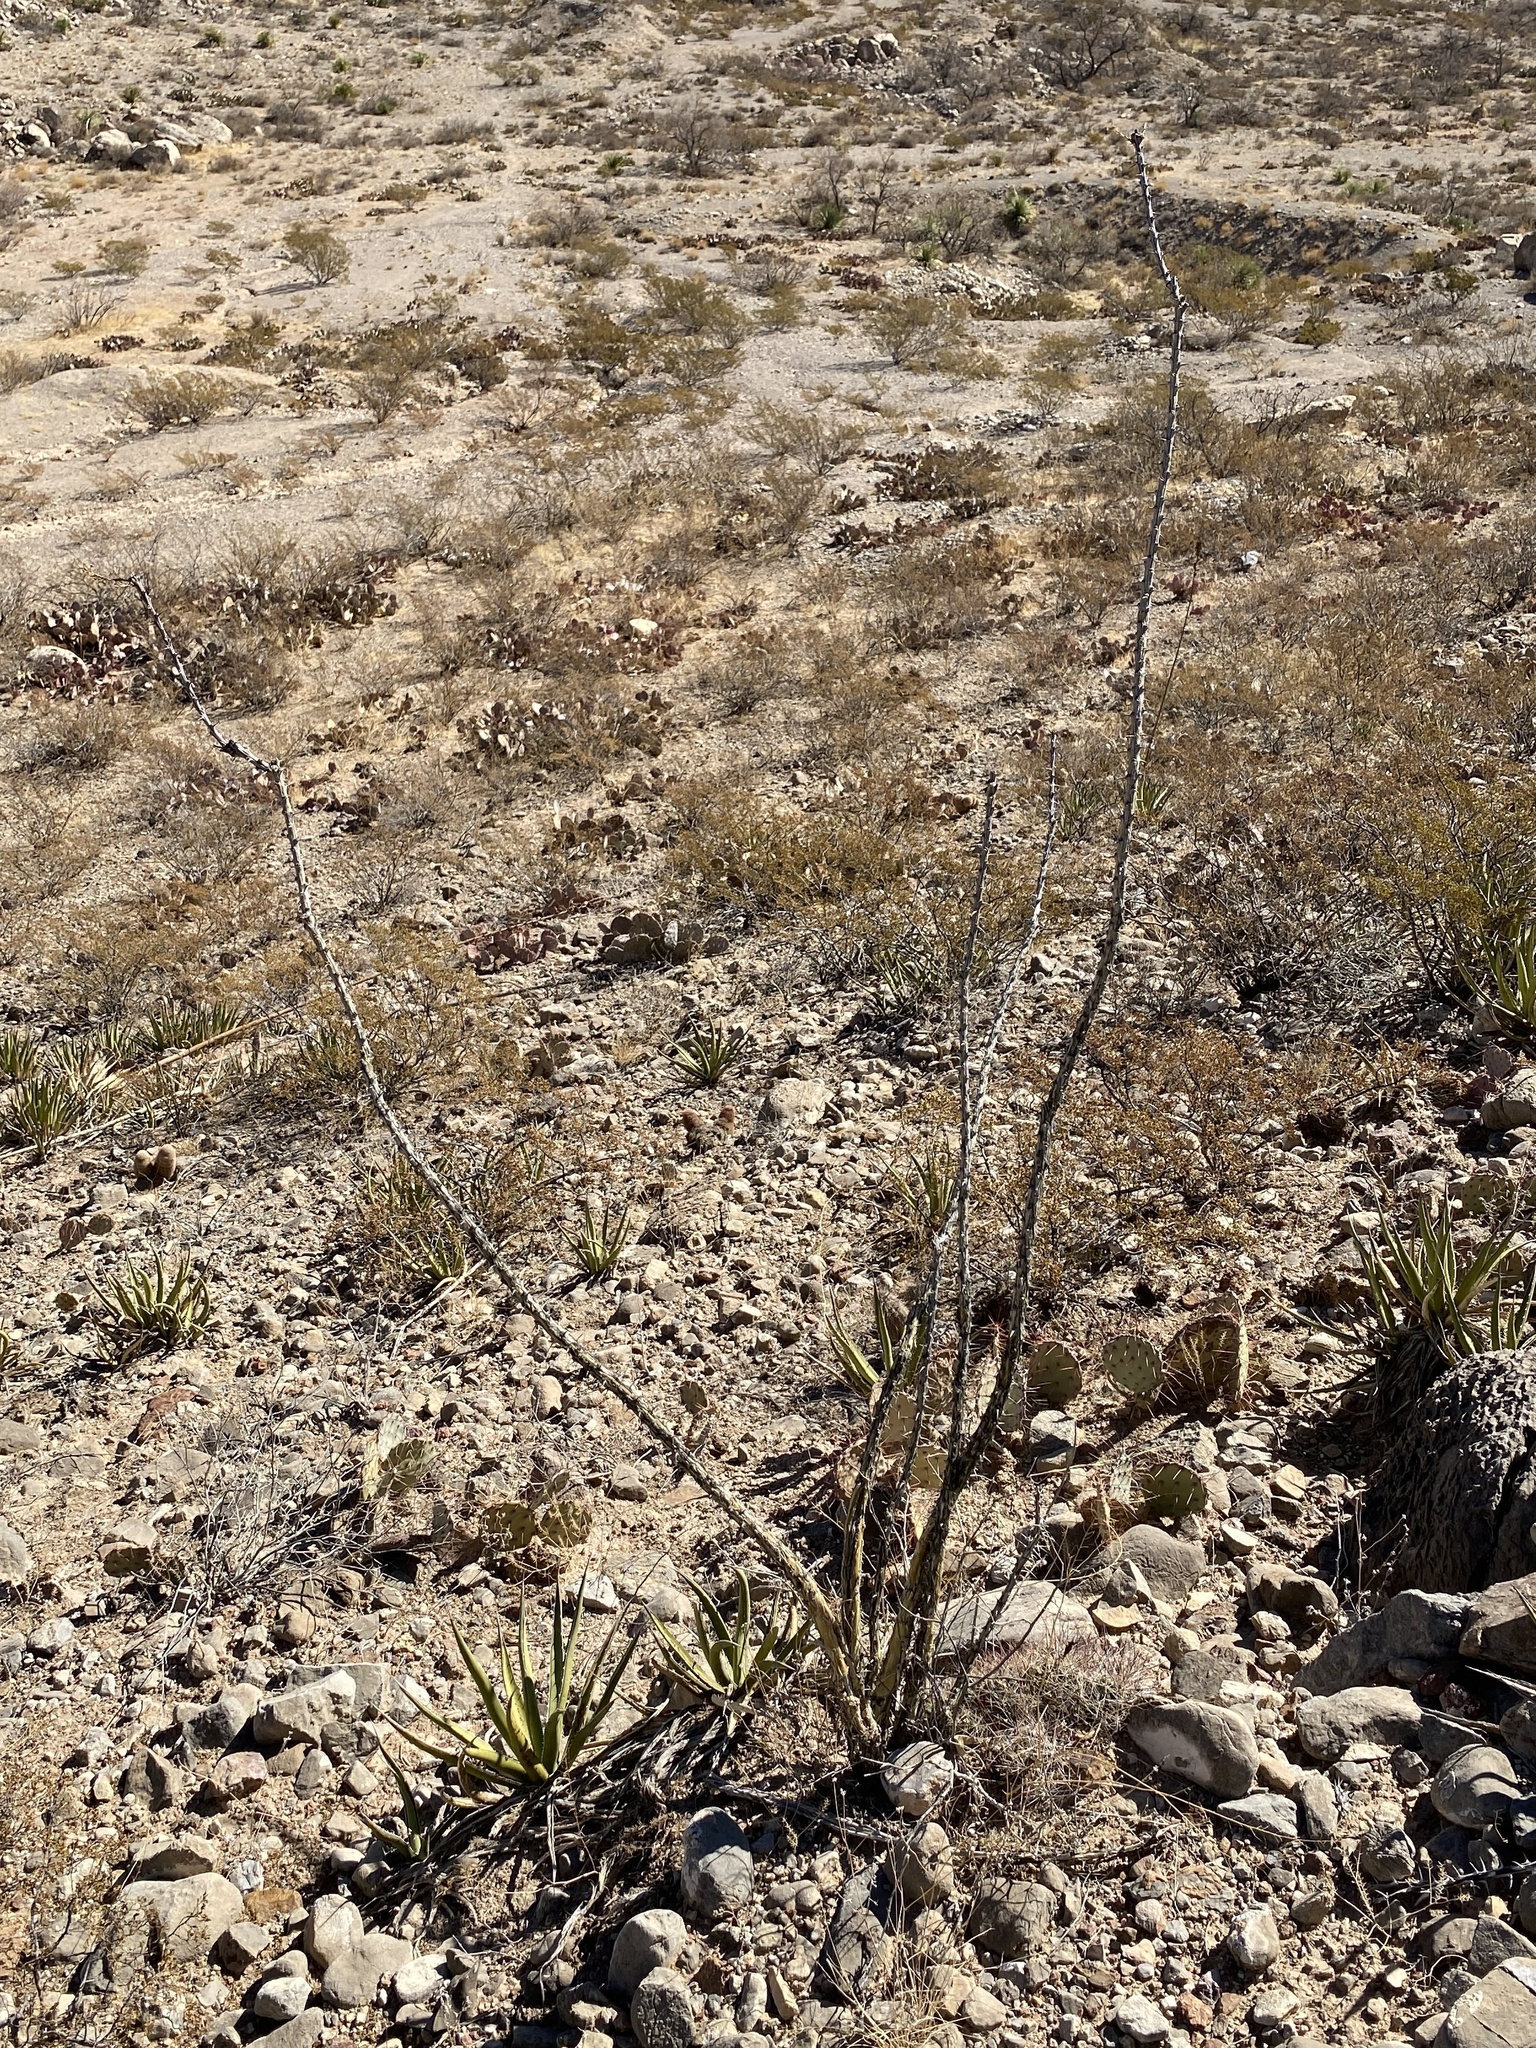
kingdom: Plantae
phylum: Tracheophyta
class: Magnoliopsida
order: Ericales
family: Fouquieriaceae
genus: Fouquieria
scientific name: Fouquieria splendens
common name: Vine-cactus
